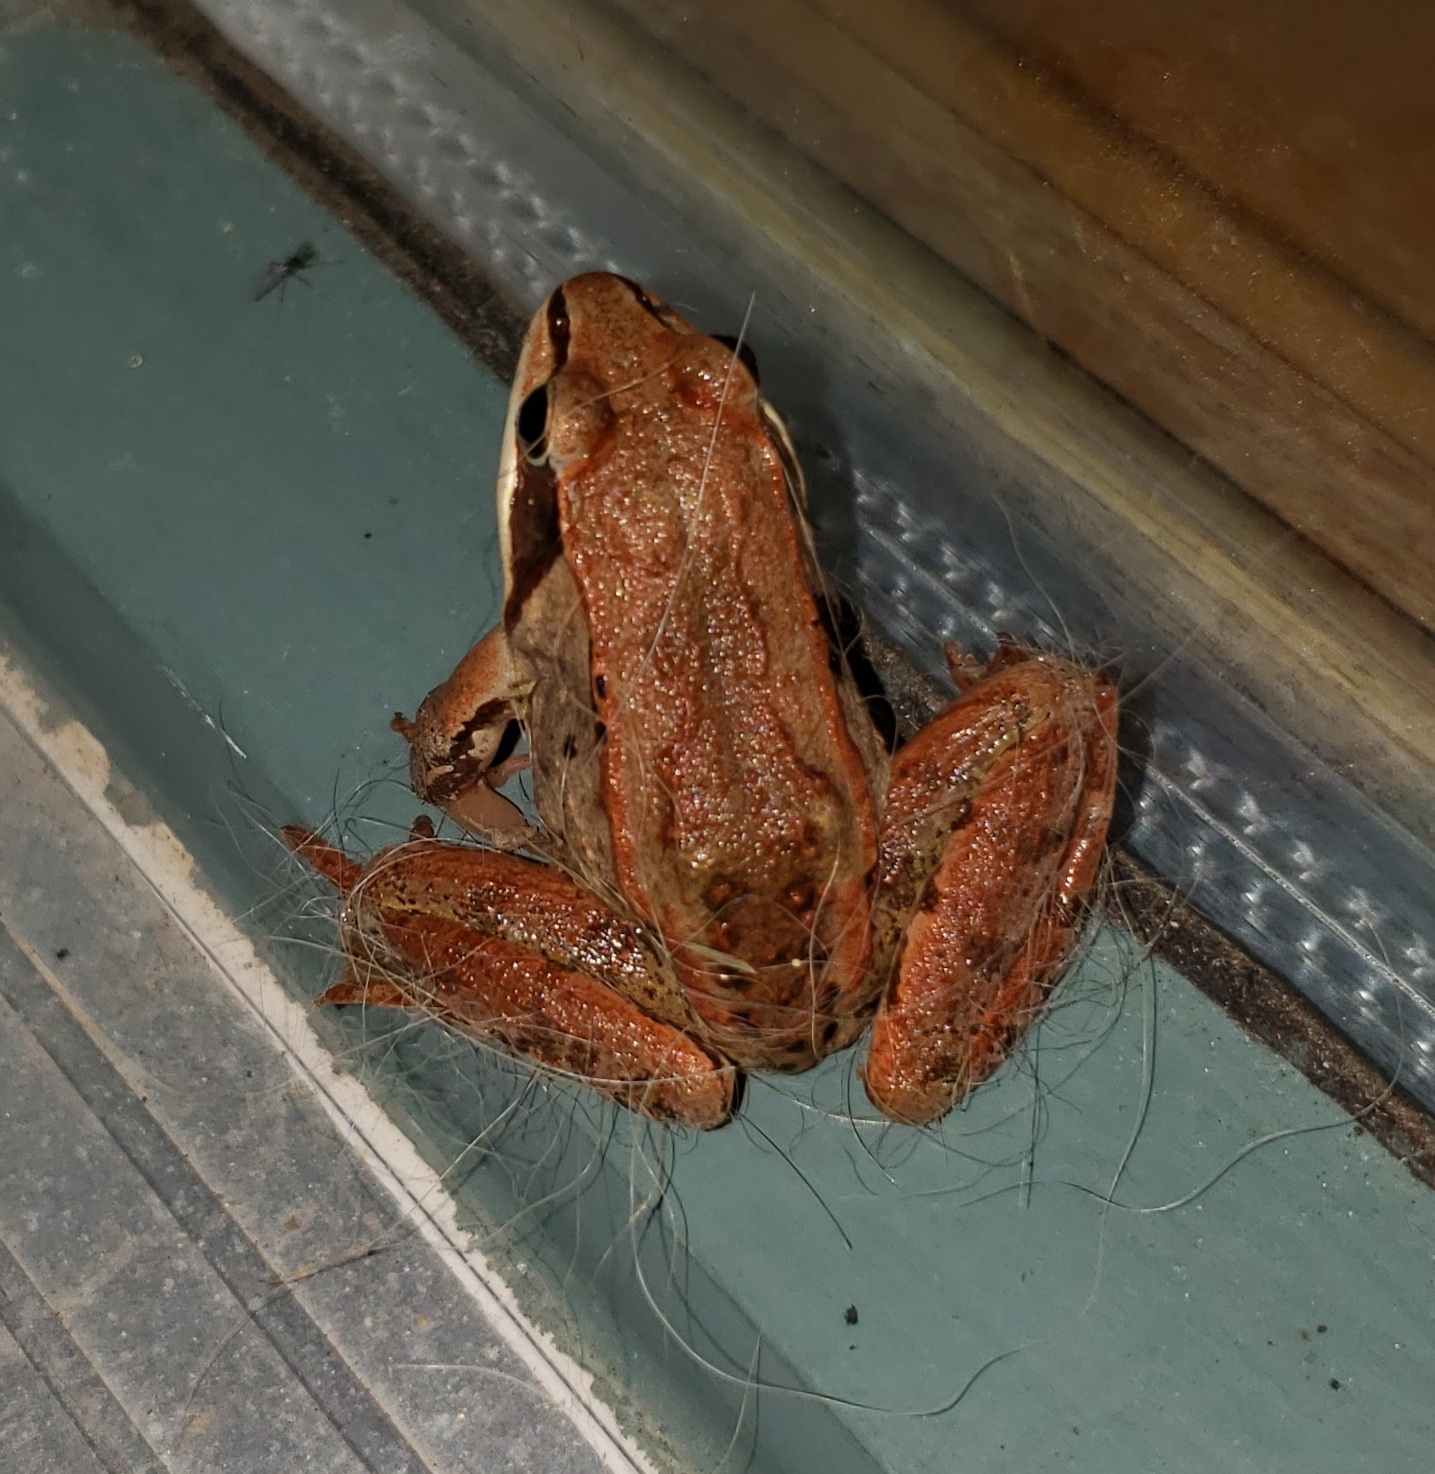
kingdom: Animalia
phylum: Chordata
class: Amphibia
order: Anura
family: Ranidae
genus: Lithobates
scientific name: Lithobates sylvaticus
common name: Wood frog
